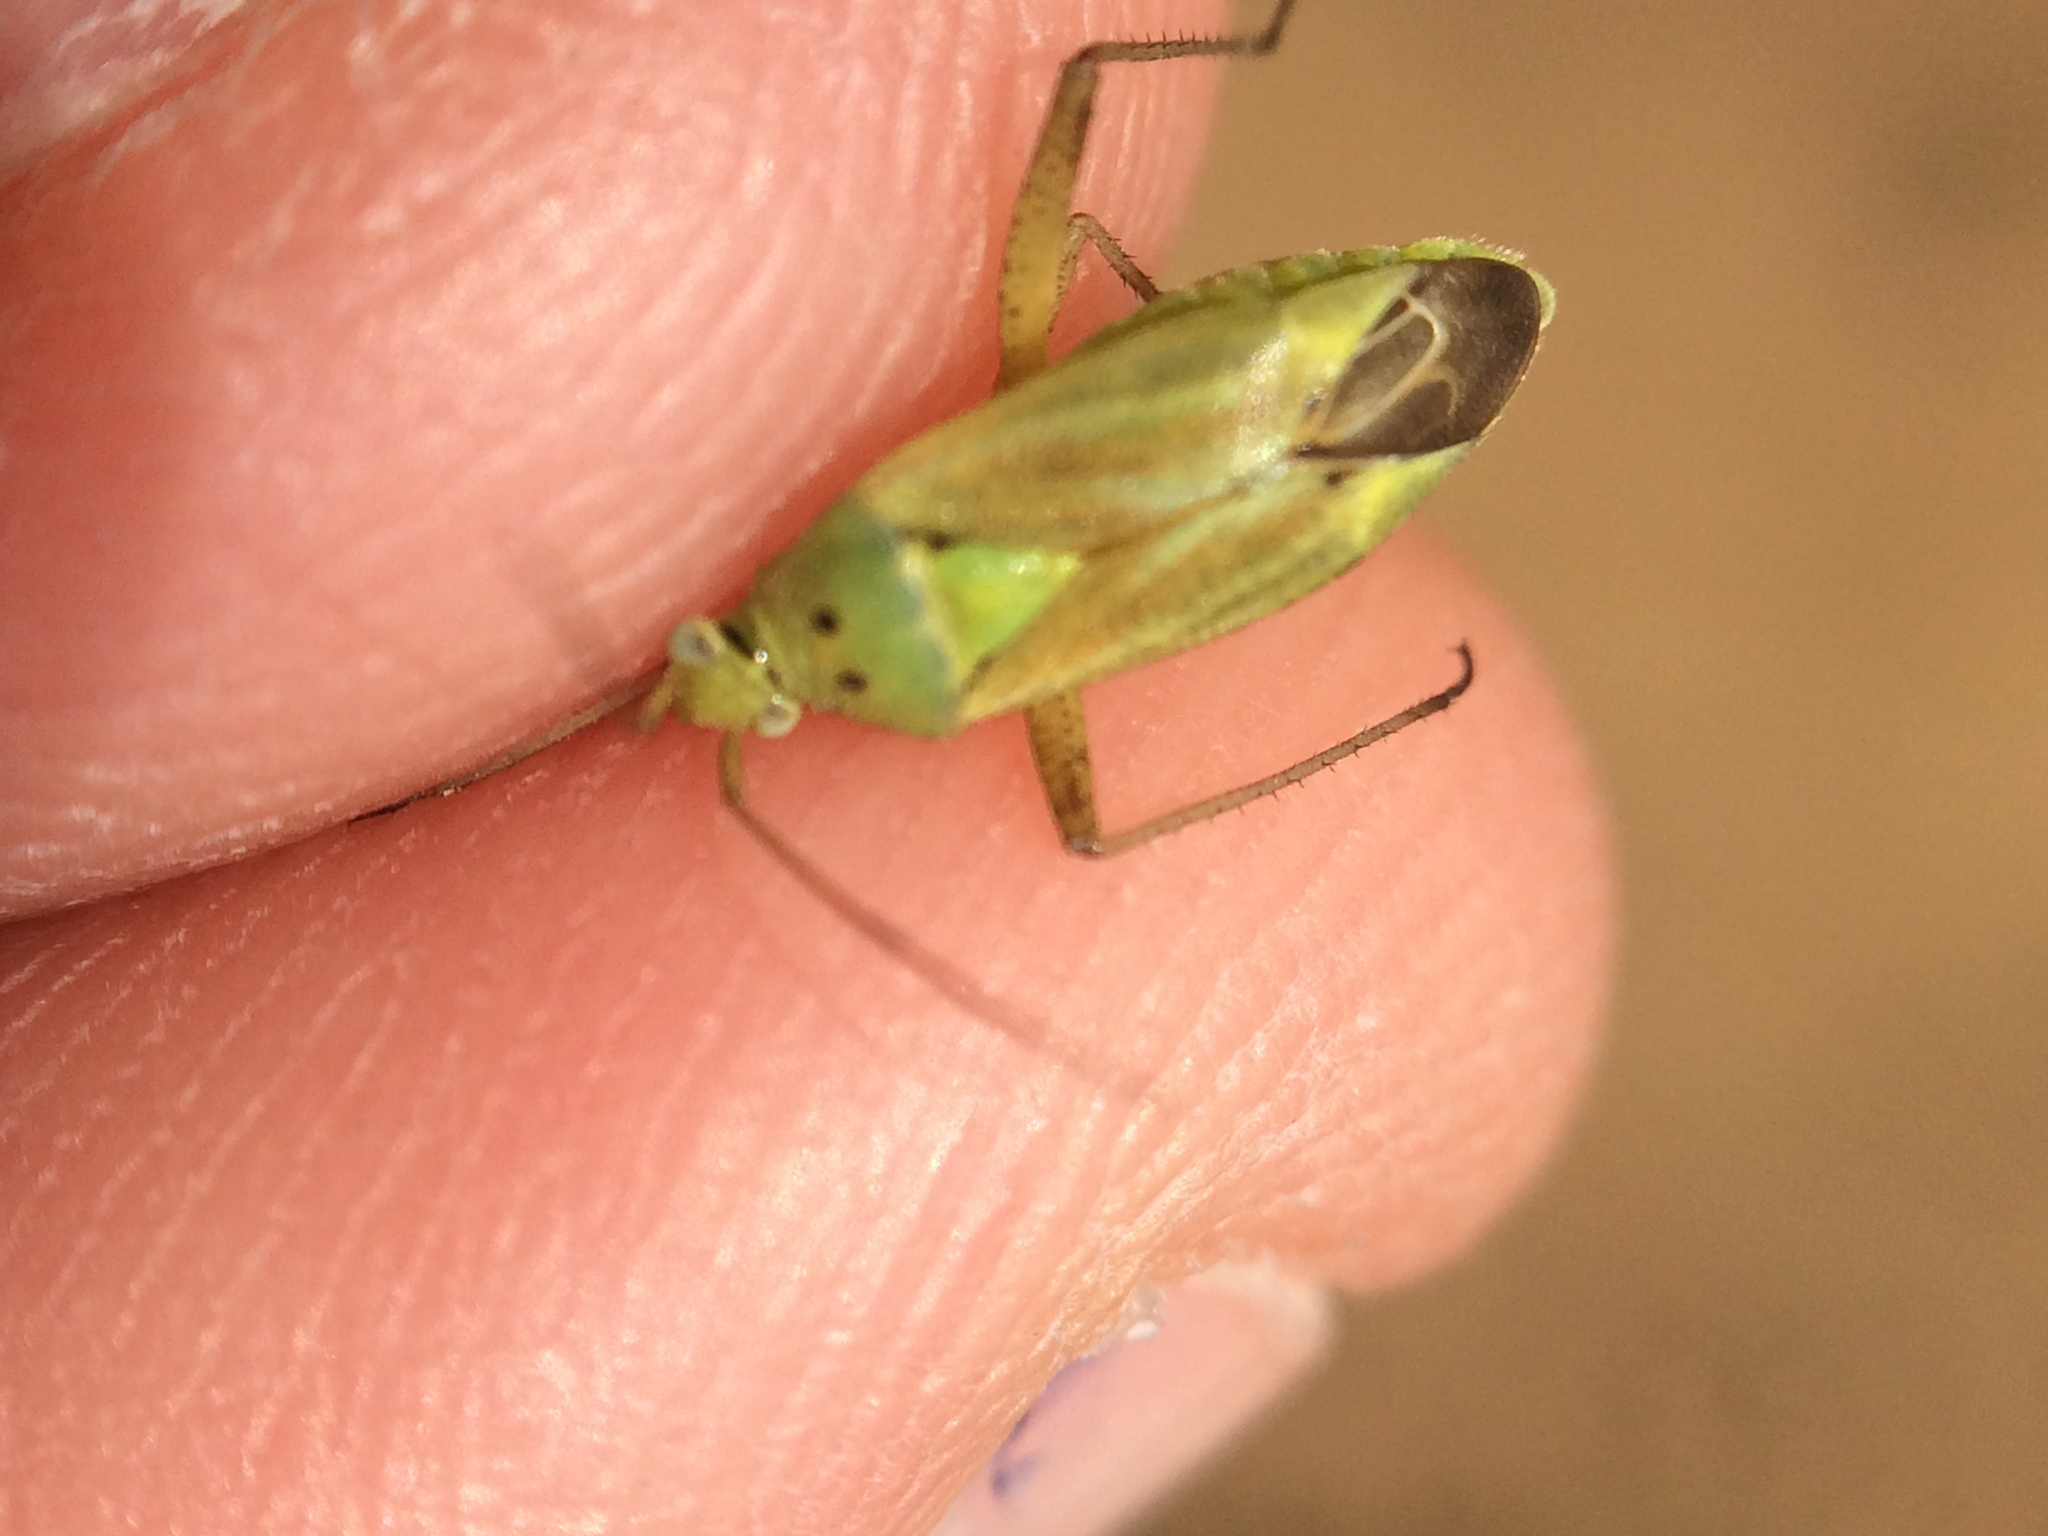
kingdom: Animalia
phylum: Arthropoda
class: Insecta
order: Hemiptera
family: Miridae
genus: Closterotomus
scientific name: Closterotomus norvegicus
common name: Plant bug
